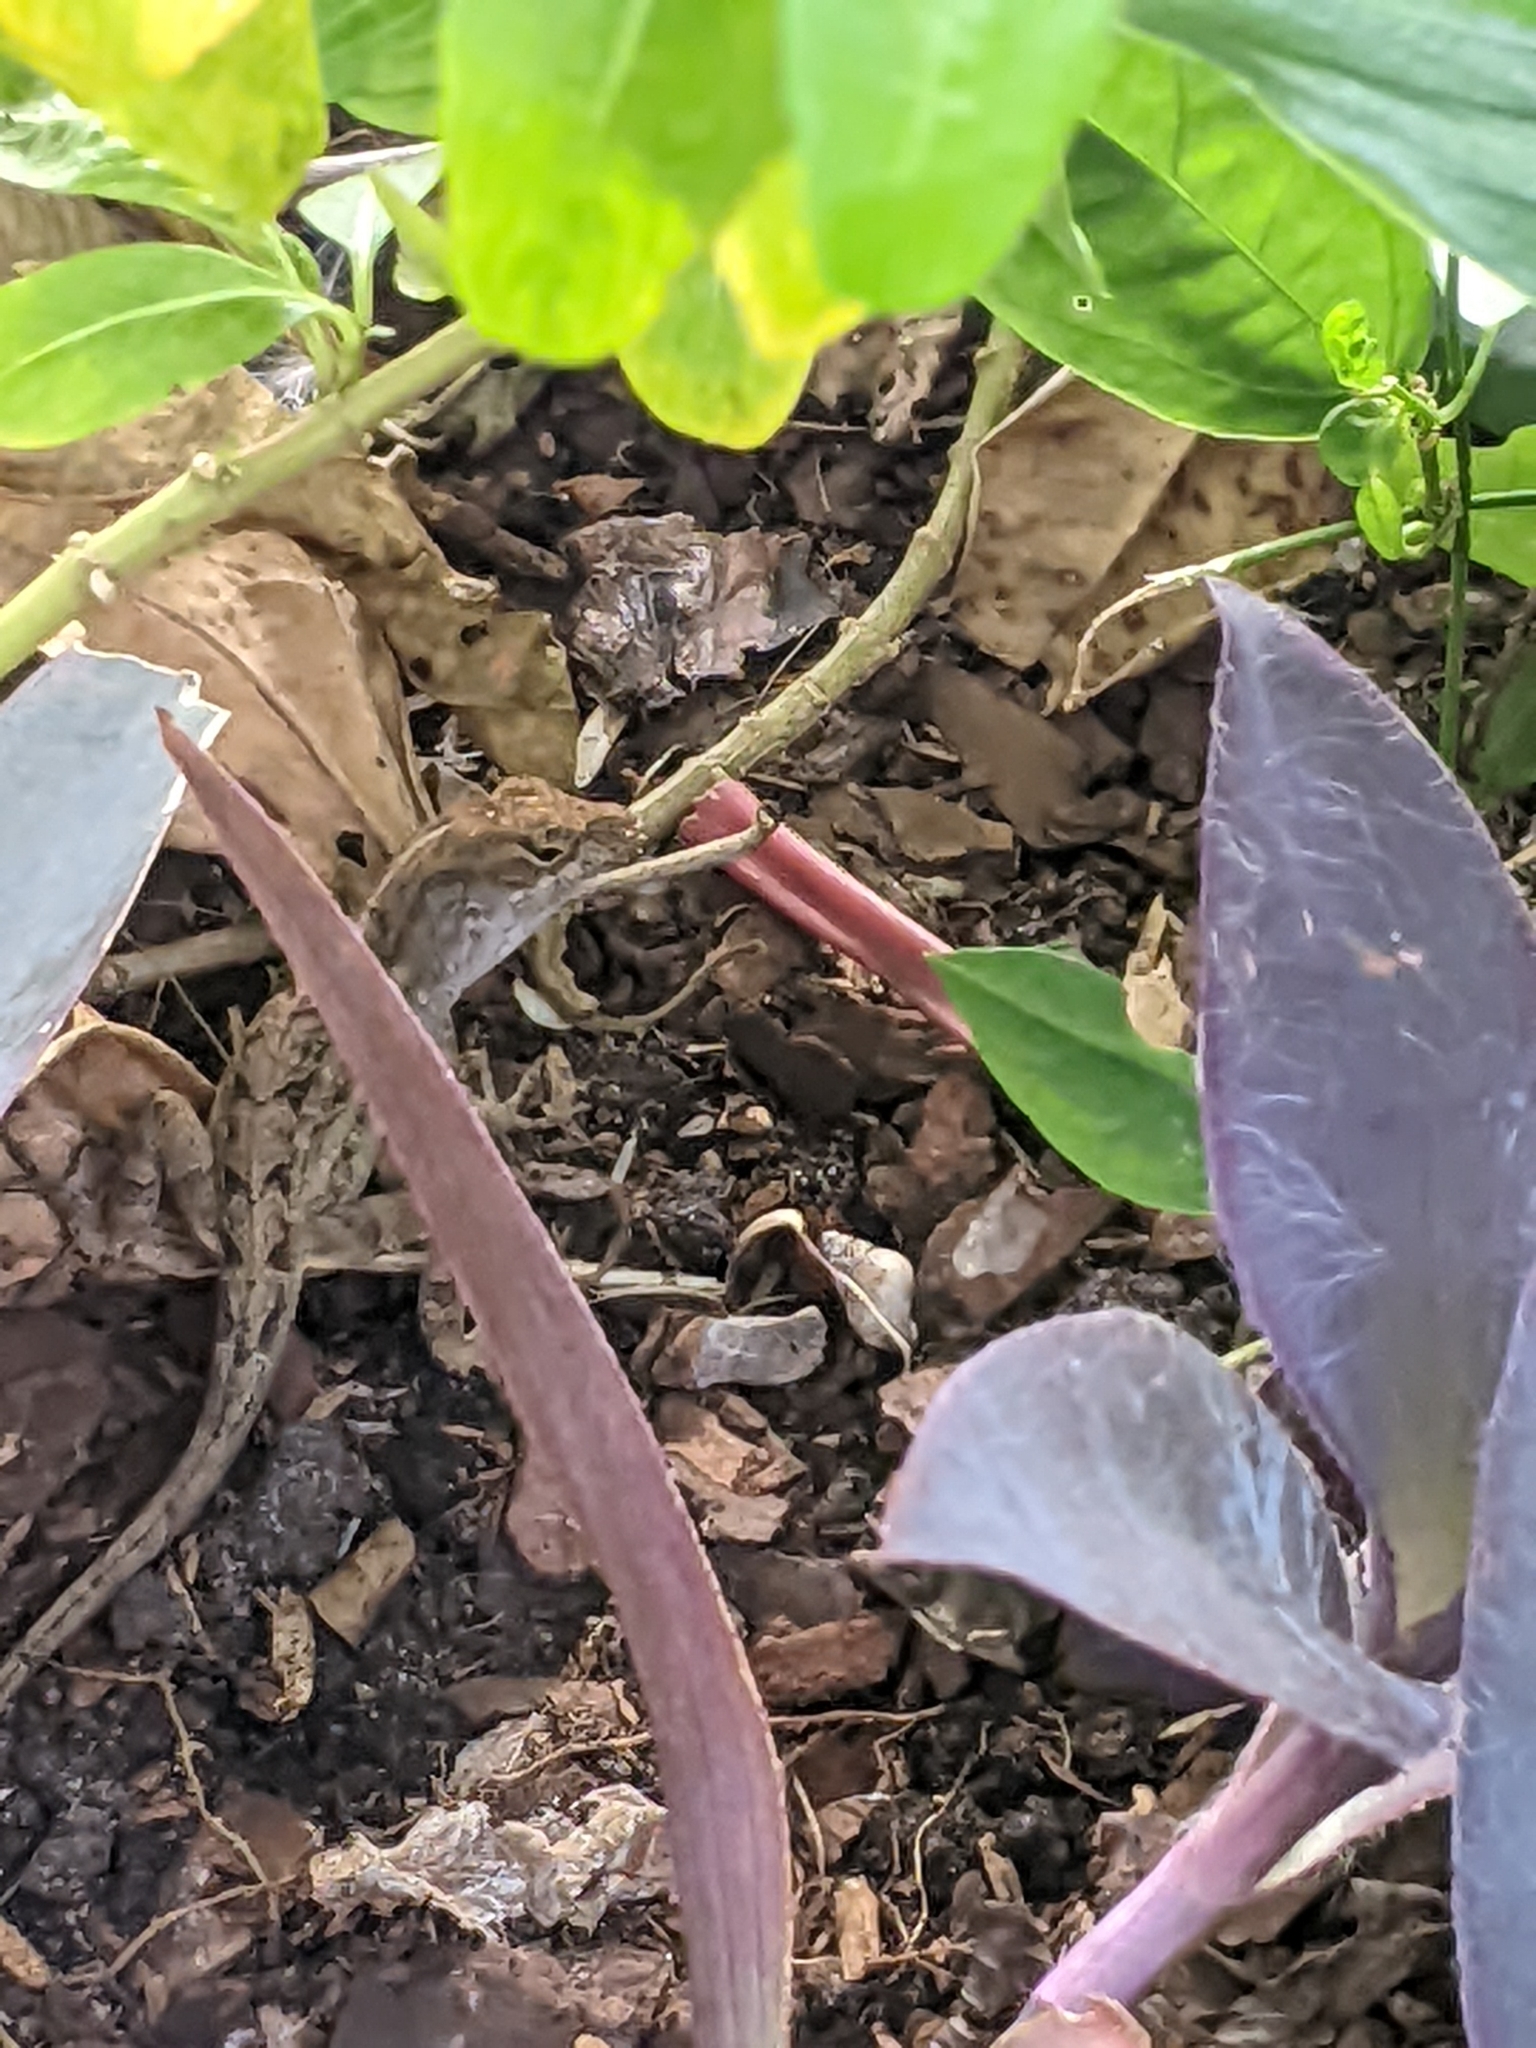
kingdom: Animalia
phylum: Chordata
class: Squamata
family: Dactyloidae
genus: Anolis
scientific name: Anolis sagrei
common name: Brown anole
